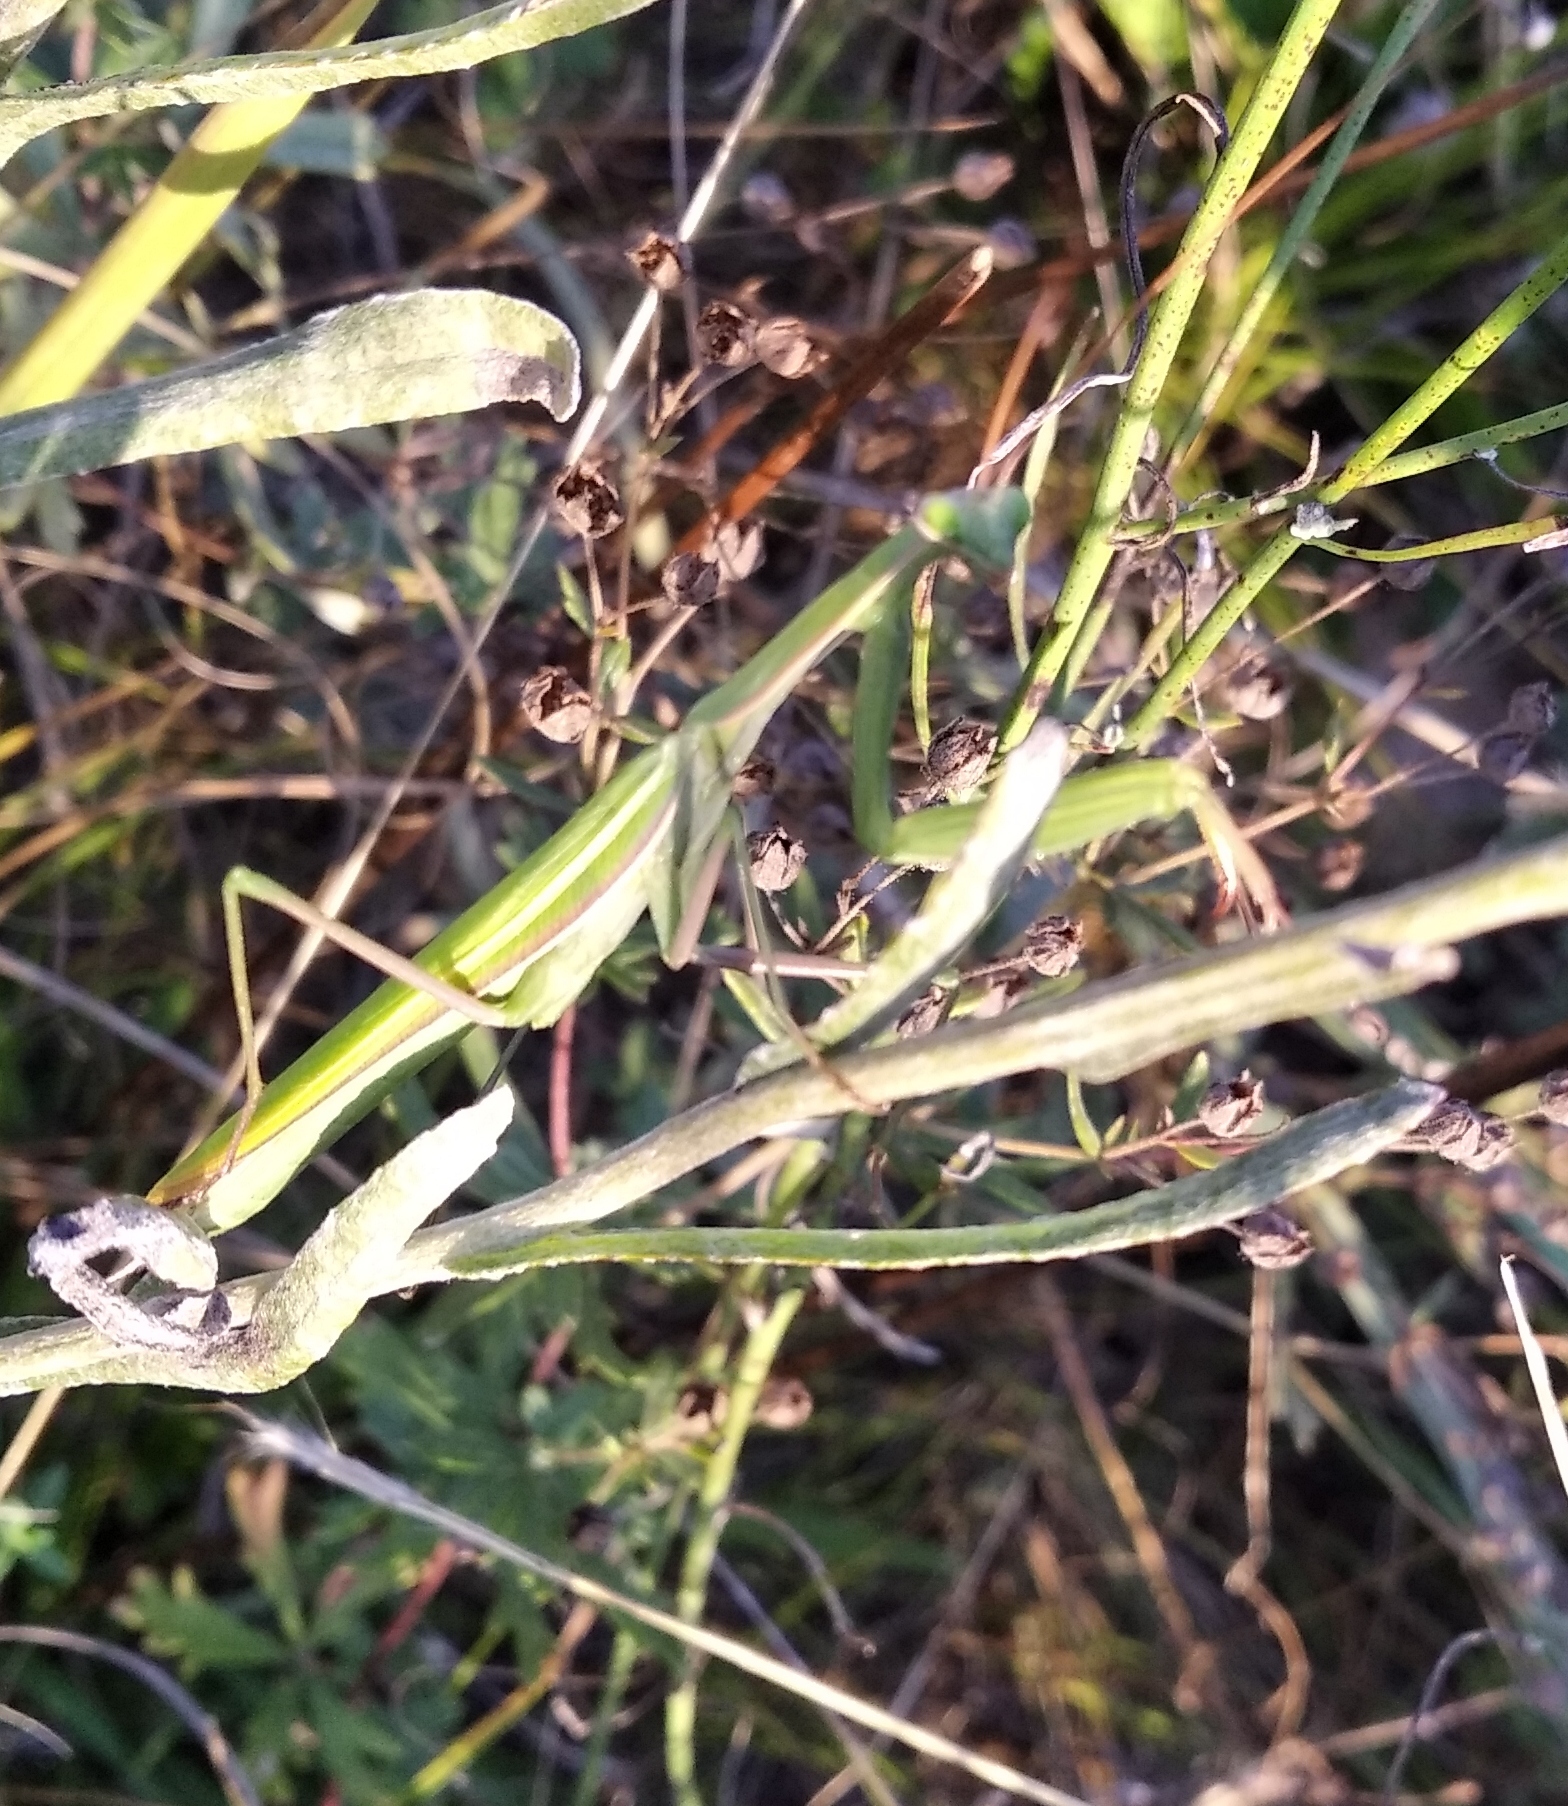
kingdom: Animalia
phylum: Arthropoda
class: Insecta
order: Mantodea
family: Mantidae
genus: Mantis
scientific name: Mantis religiosa
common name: Praying mantis
